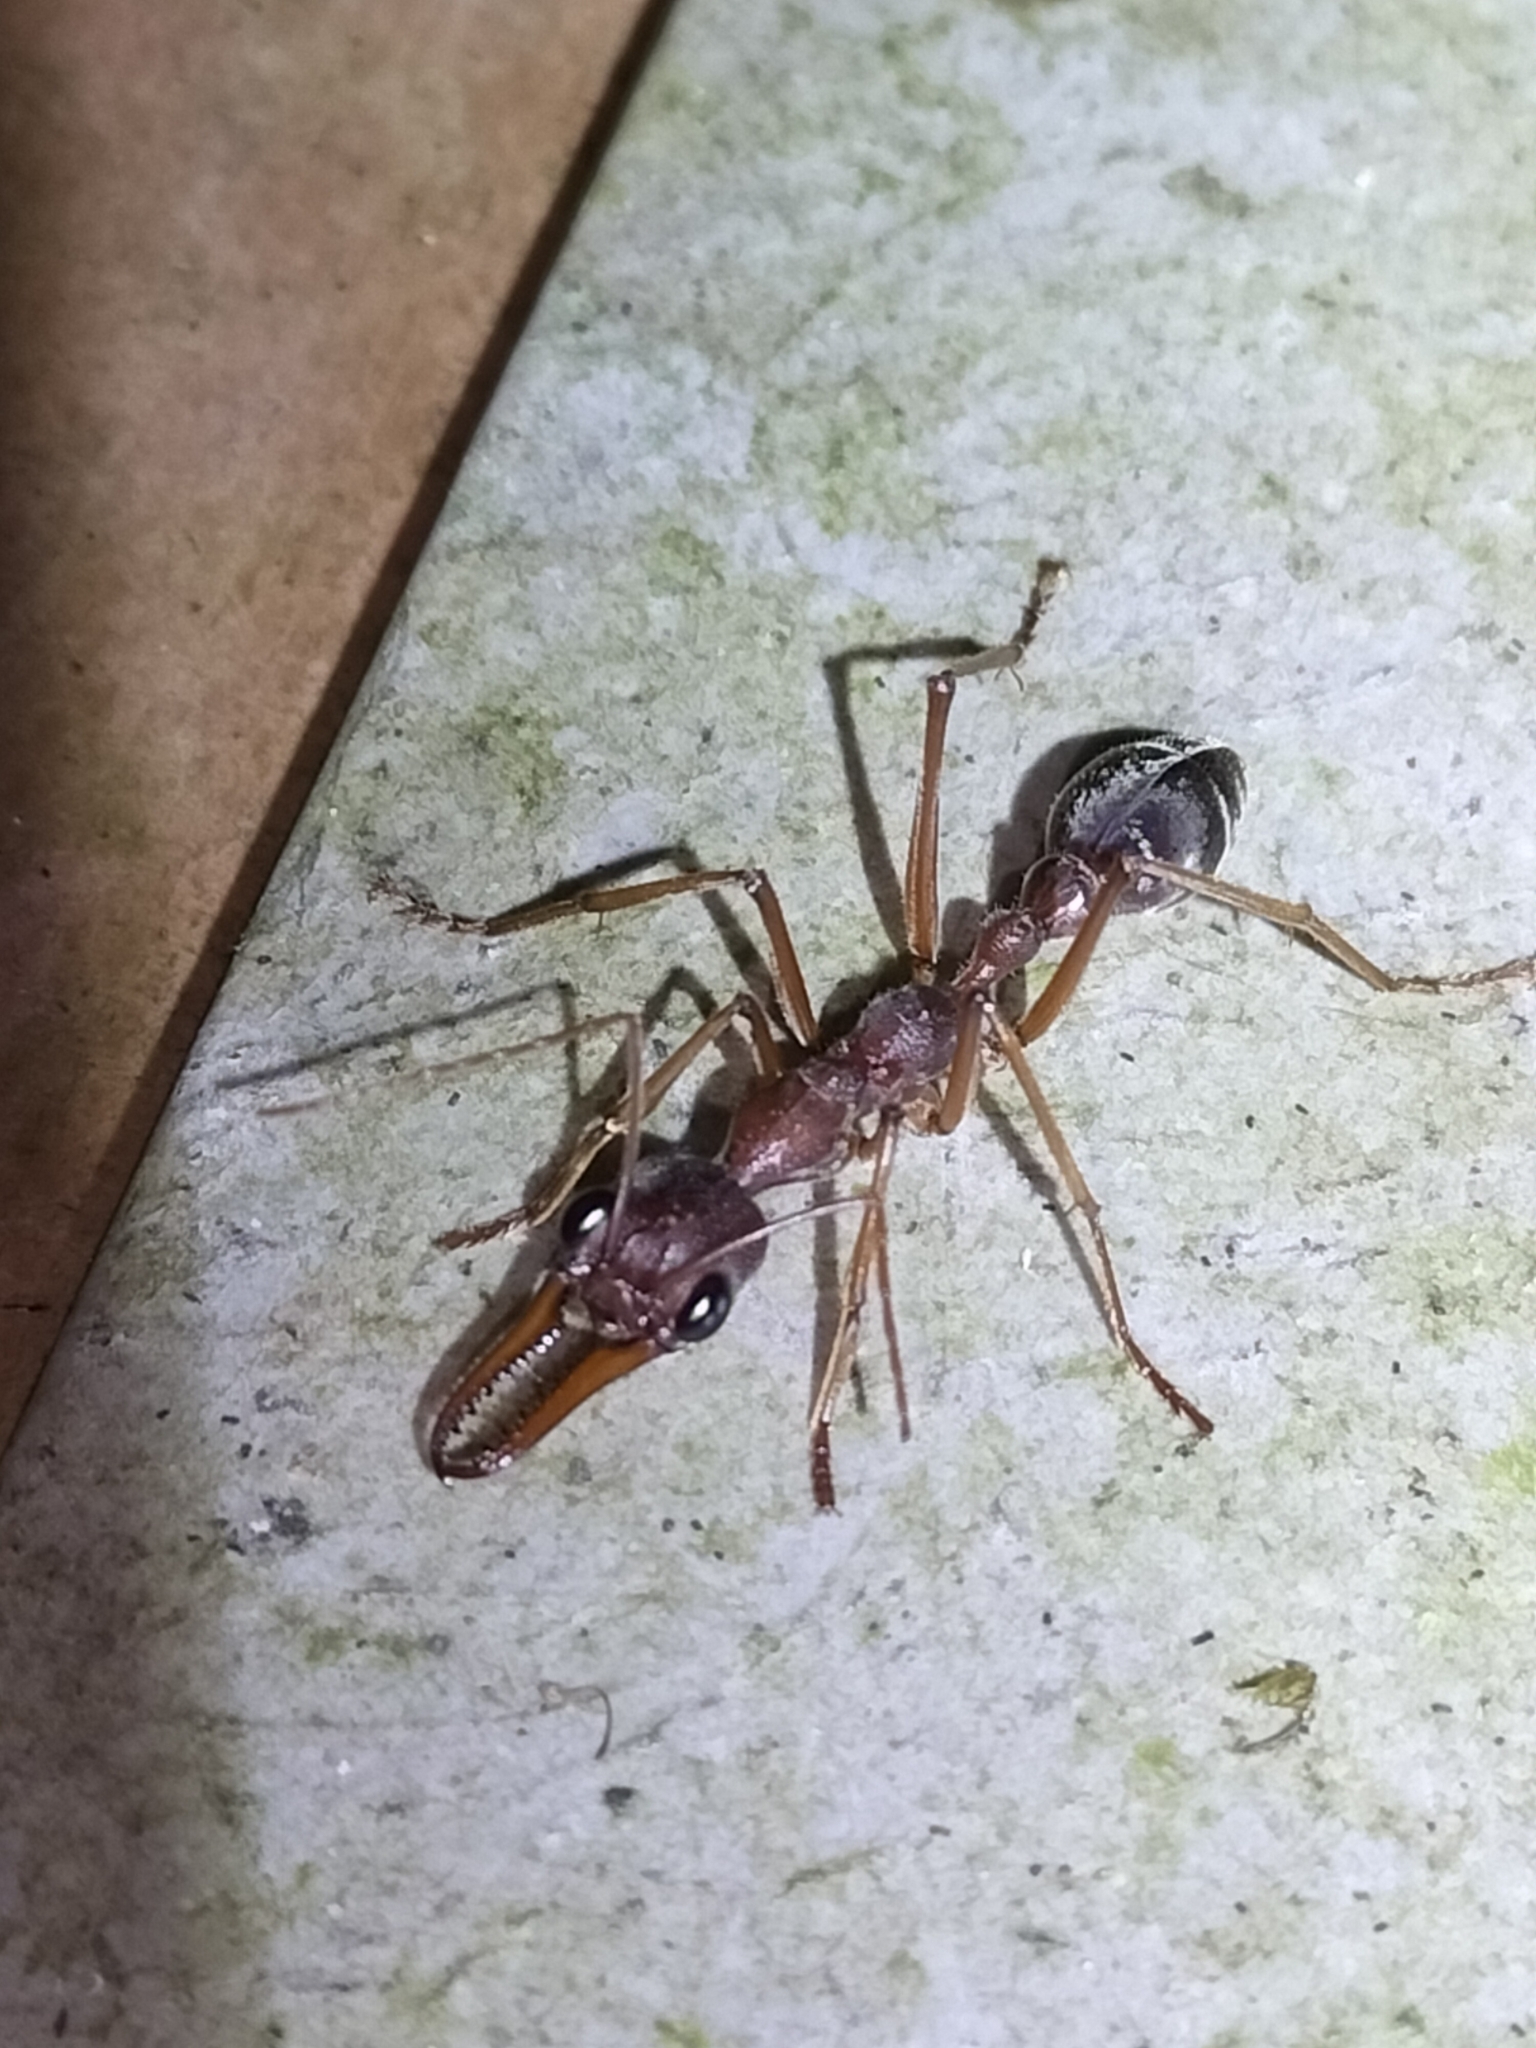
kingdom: Animalia
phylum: Arthropoda
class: Insecta
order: Hymenoptera
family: Formicidae
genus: Myrmecia
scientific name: Myrmecia mjobergi
